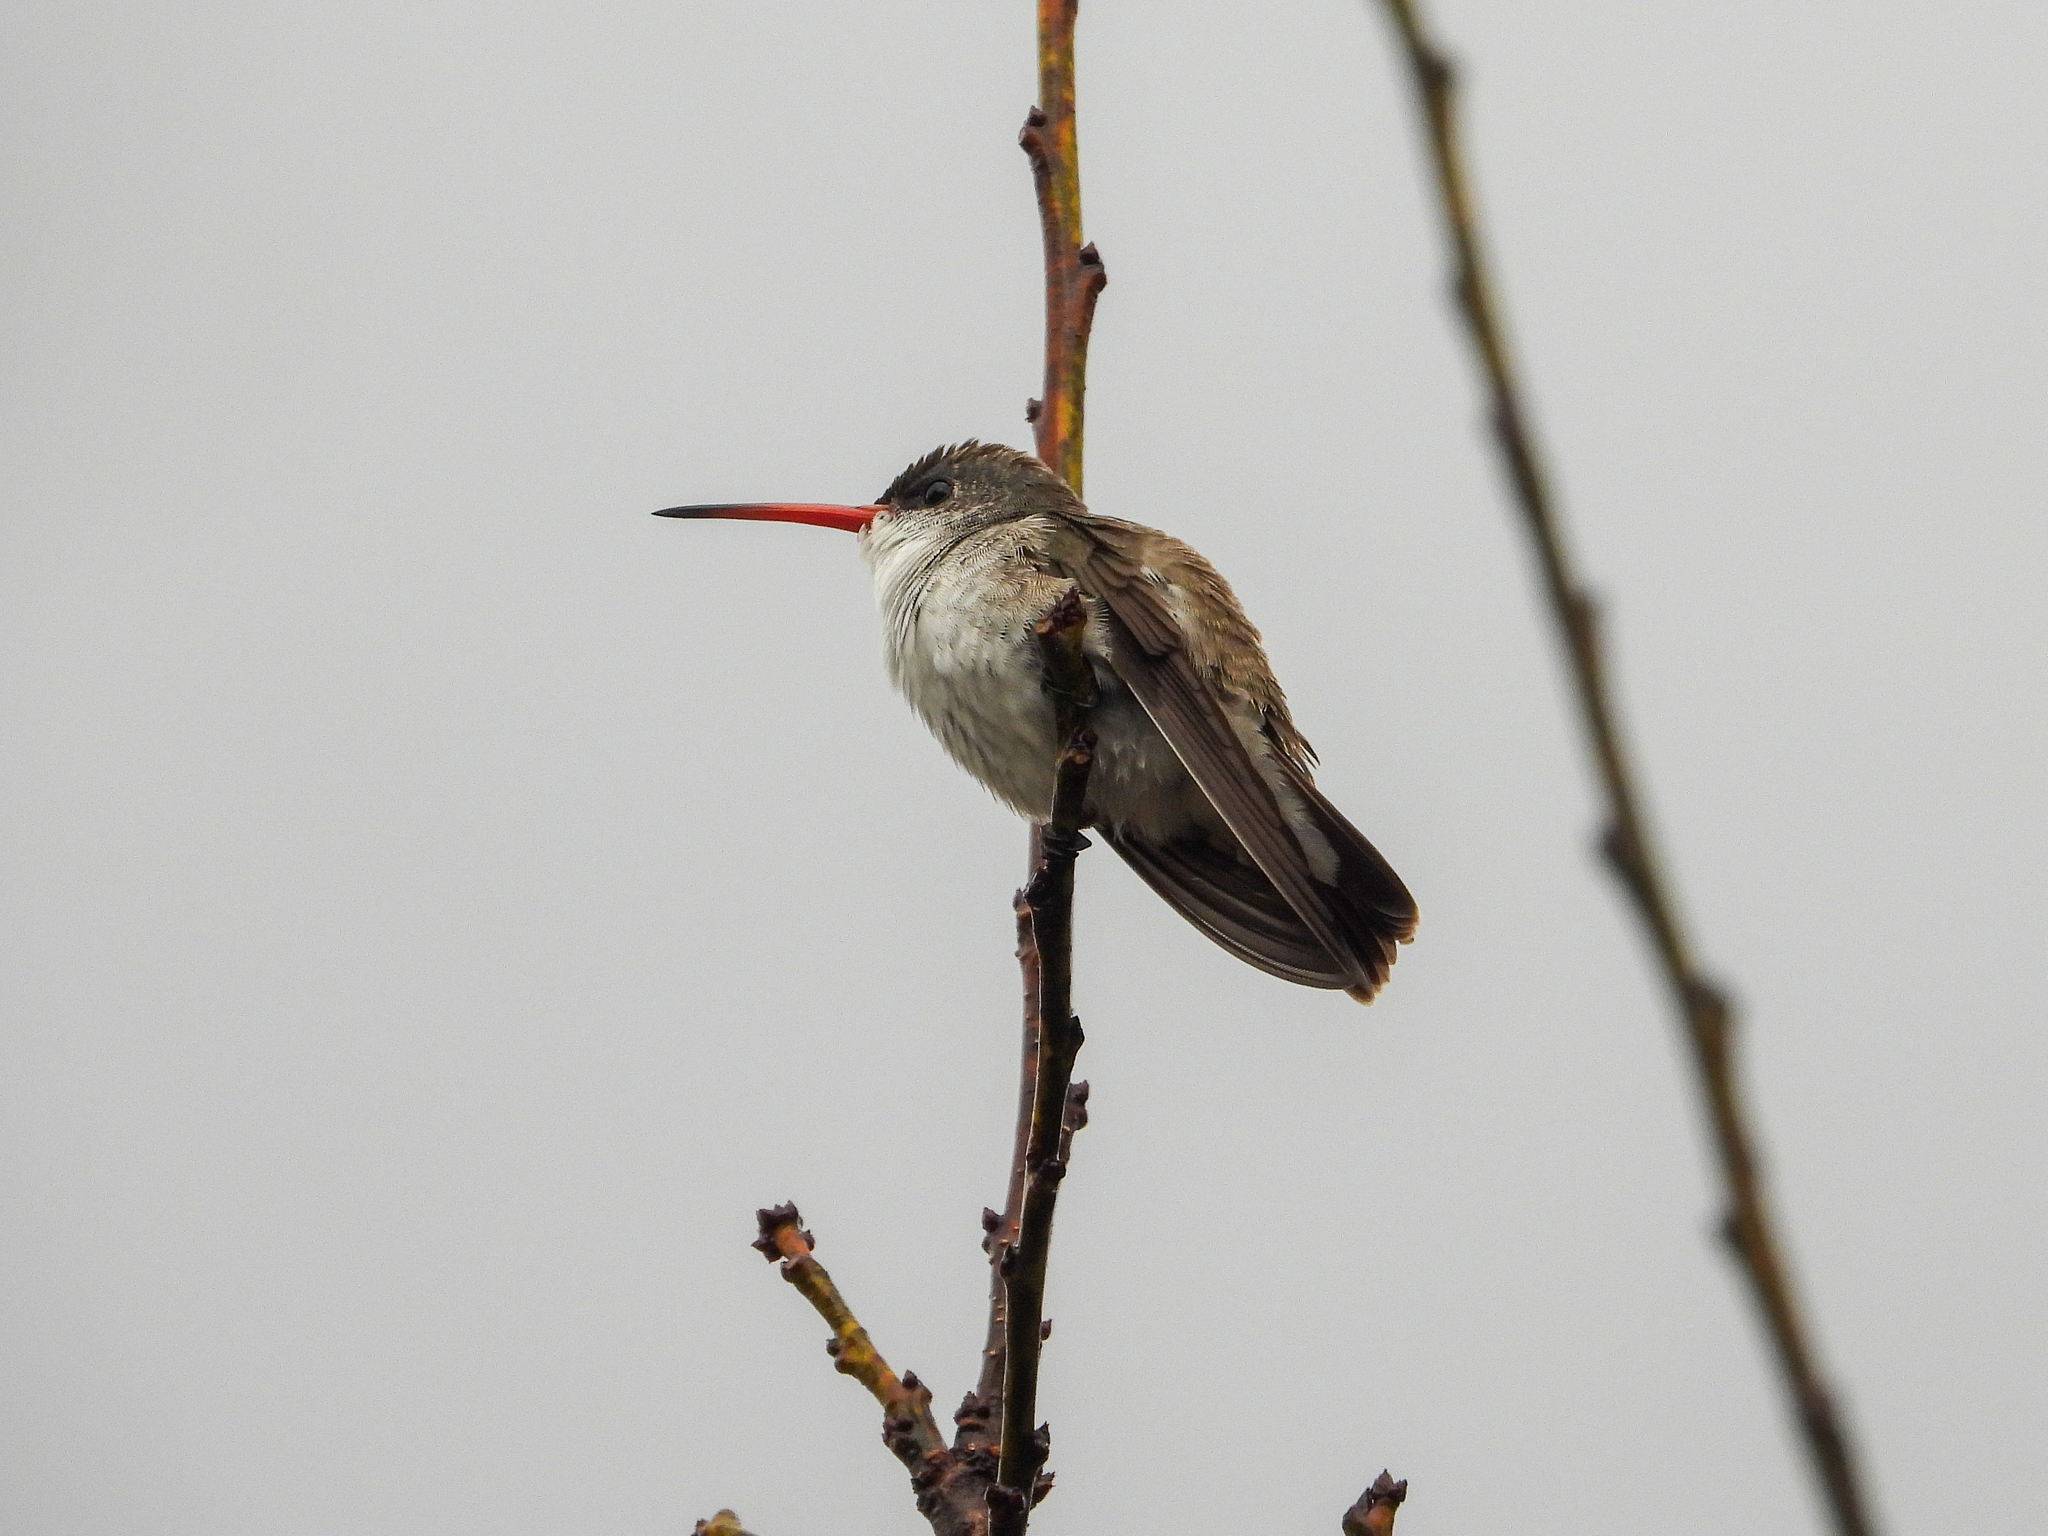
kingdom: Animalia
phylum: Chordata
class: Aves
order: Apodiformes
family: Trochilidae
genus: Leucolia
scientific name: Leucolia violiceps
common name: Violet-crowned hummingbird
